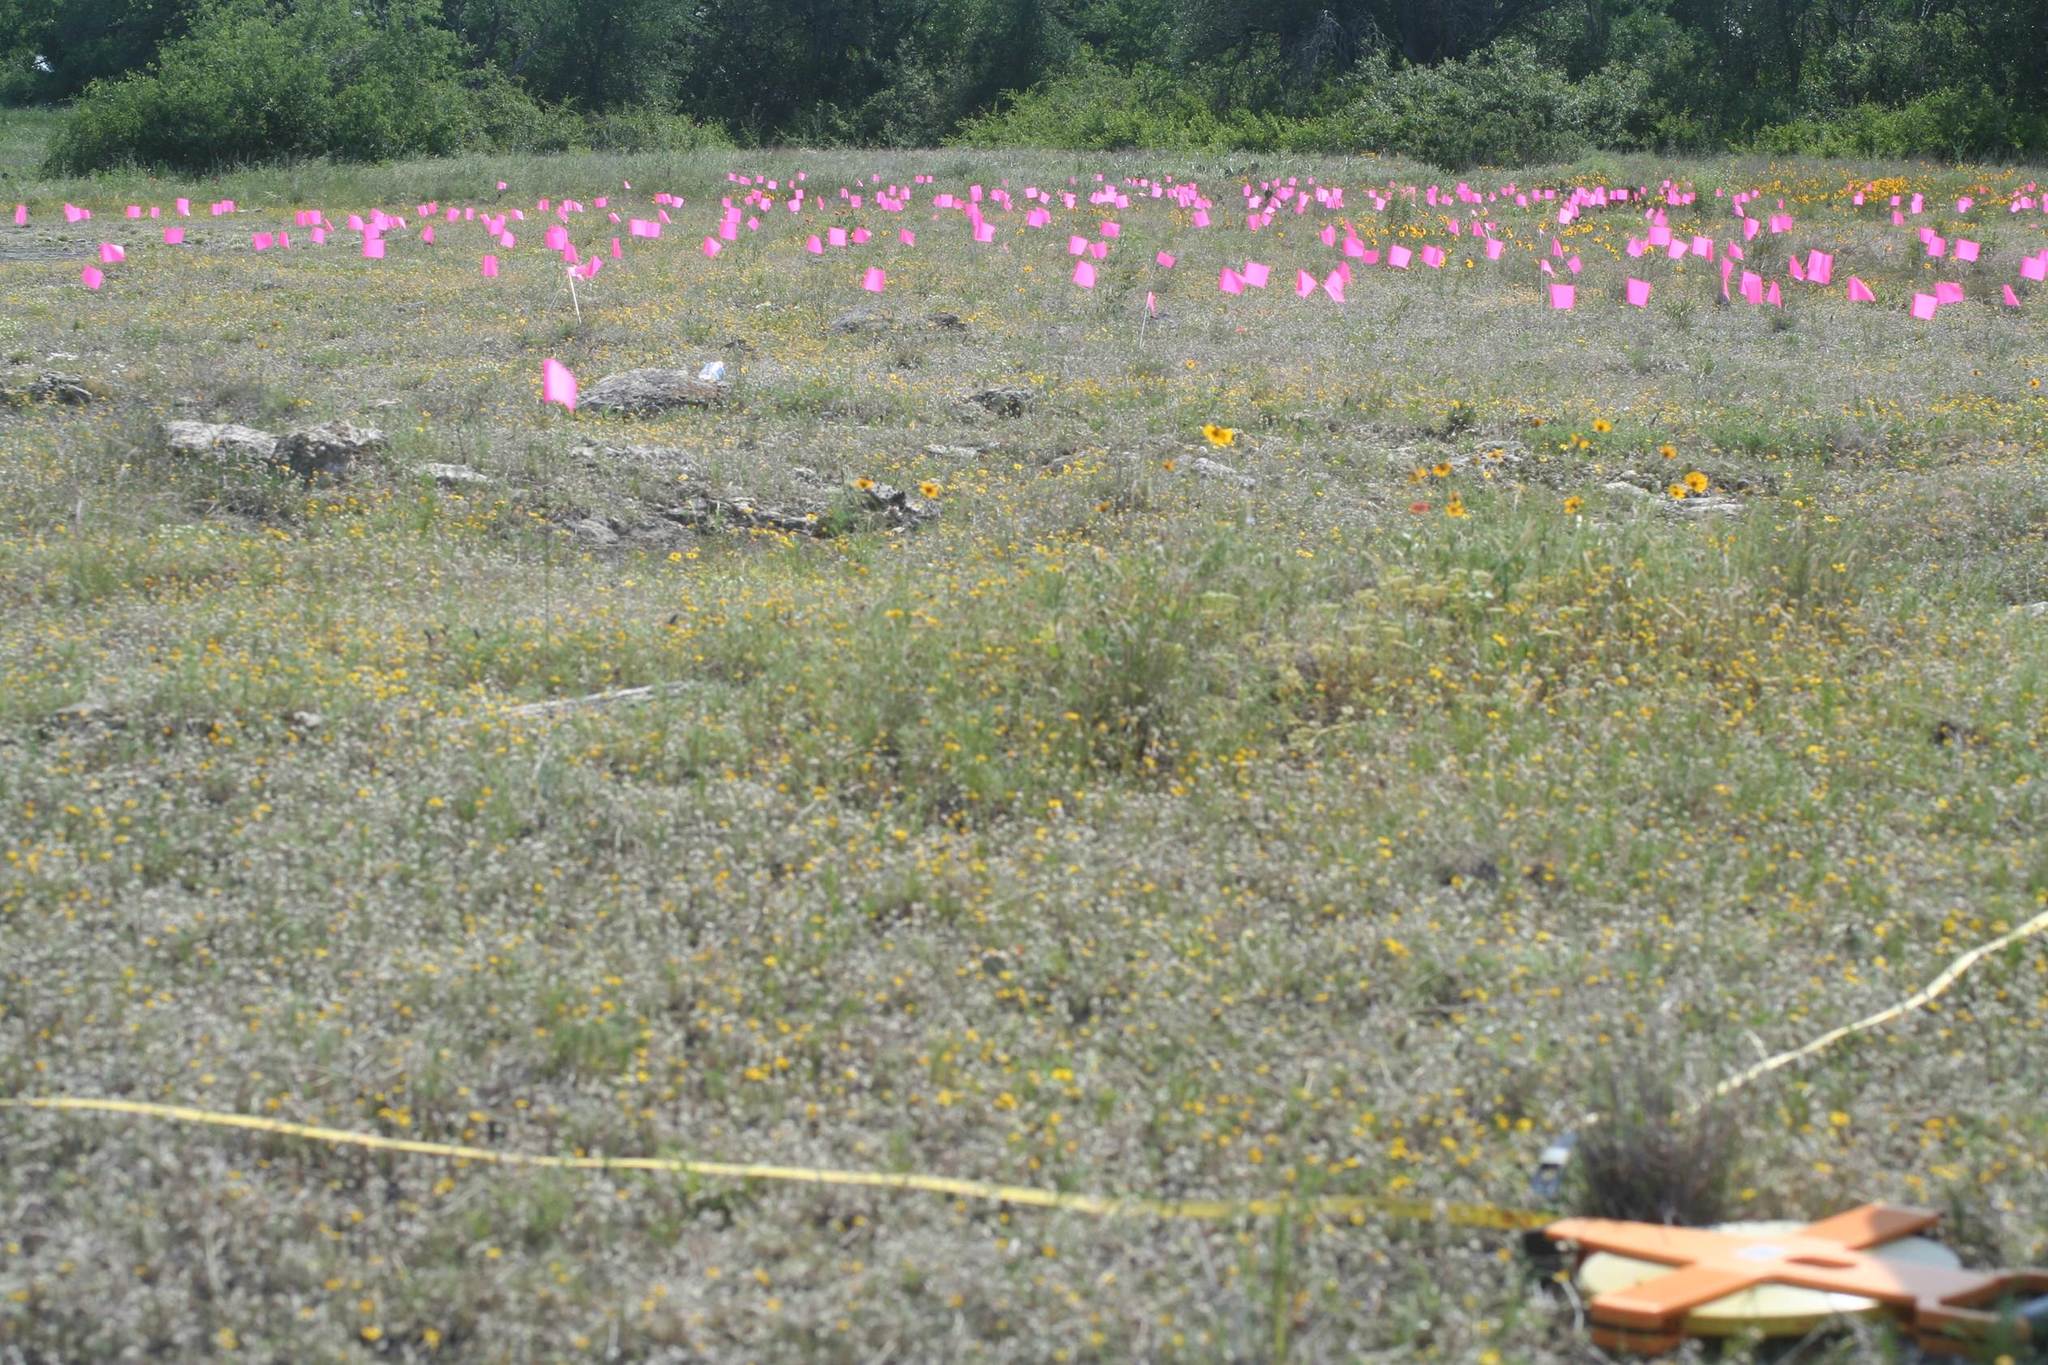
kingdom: Plantae
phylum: Tracheophyta
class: Magnoliopsida
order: Fabales
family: Fabaceae
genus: Dalea
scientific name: Dalea reverchonii
